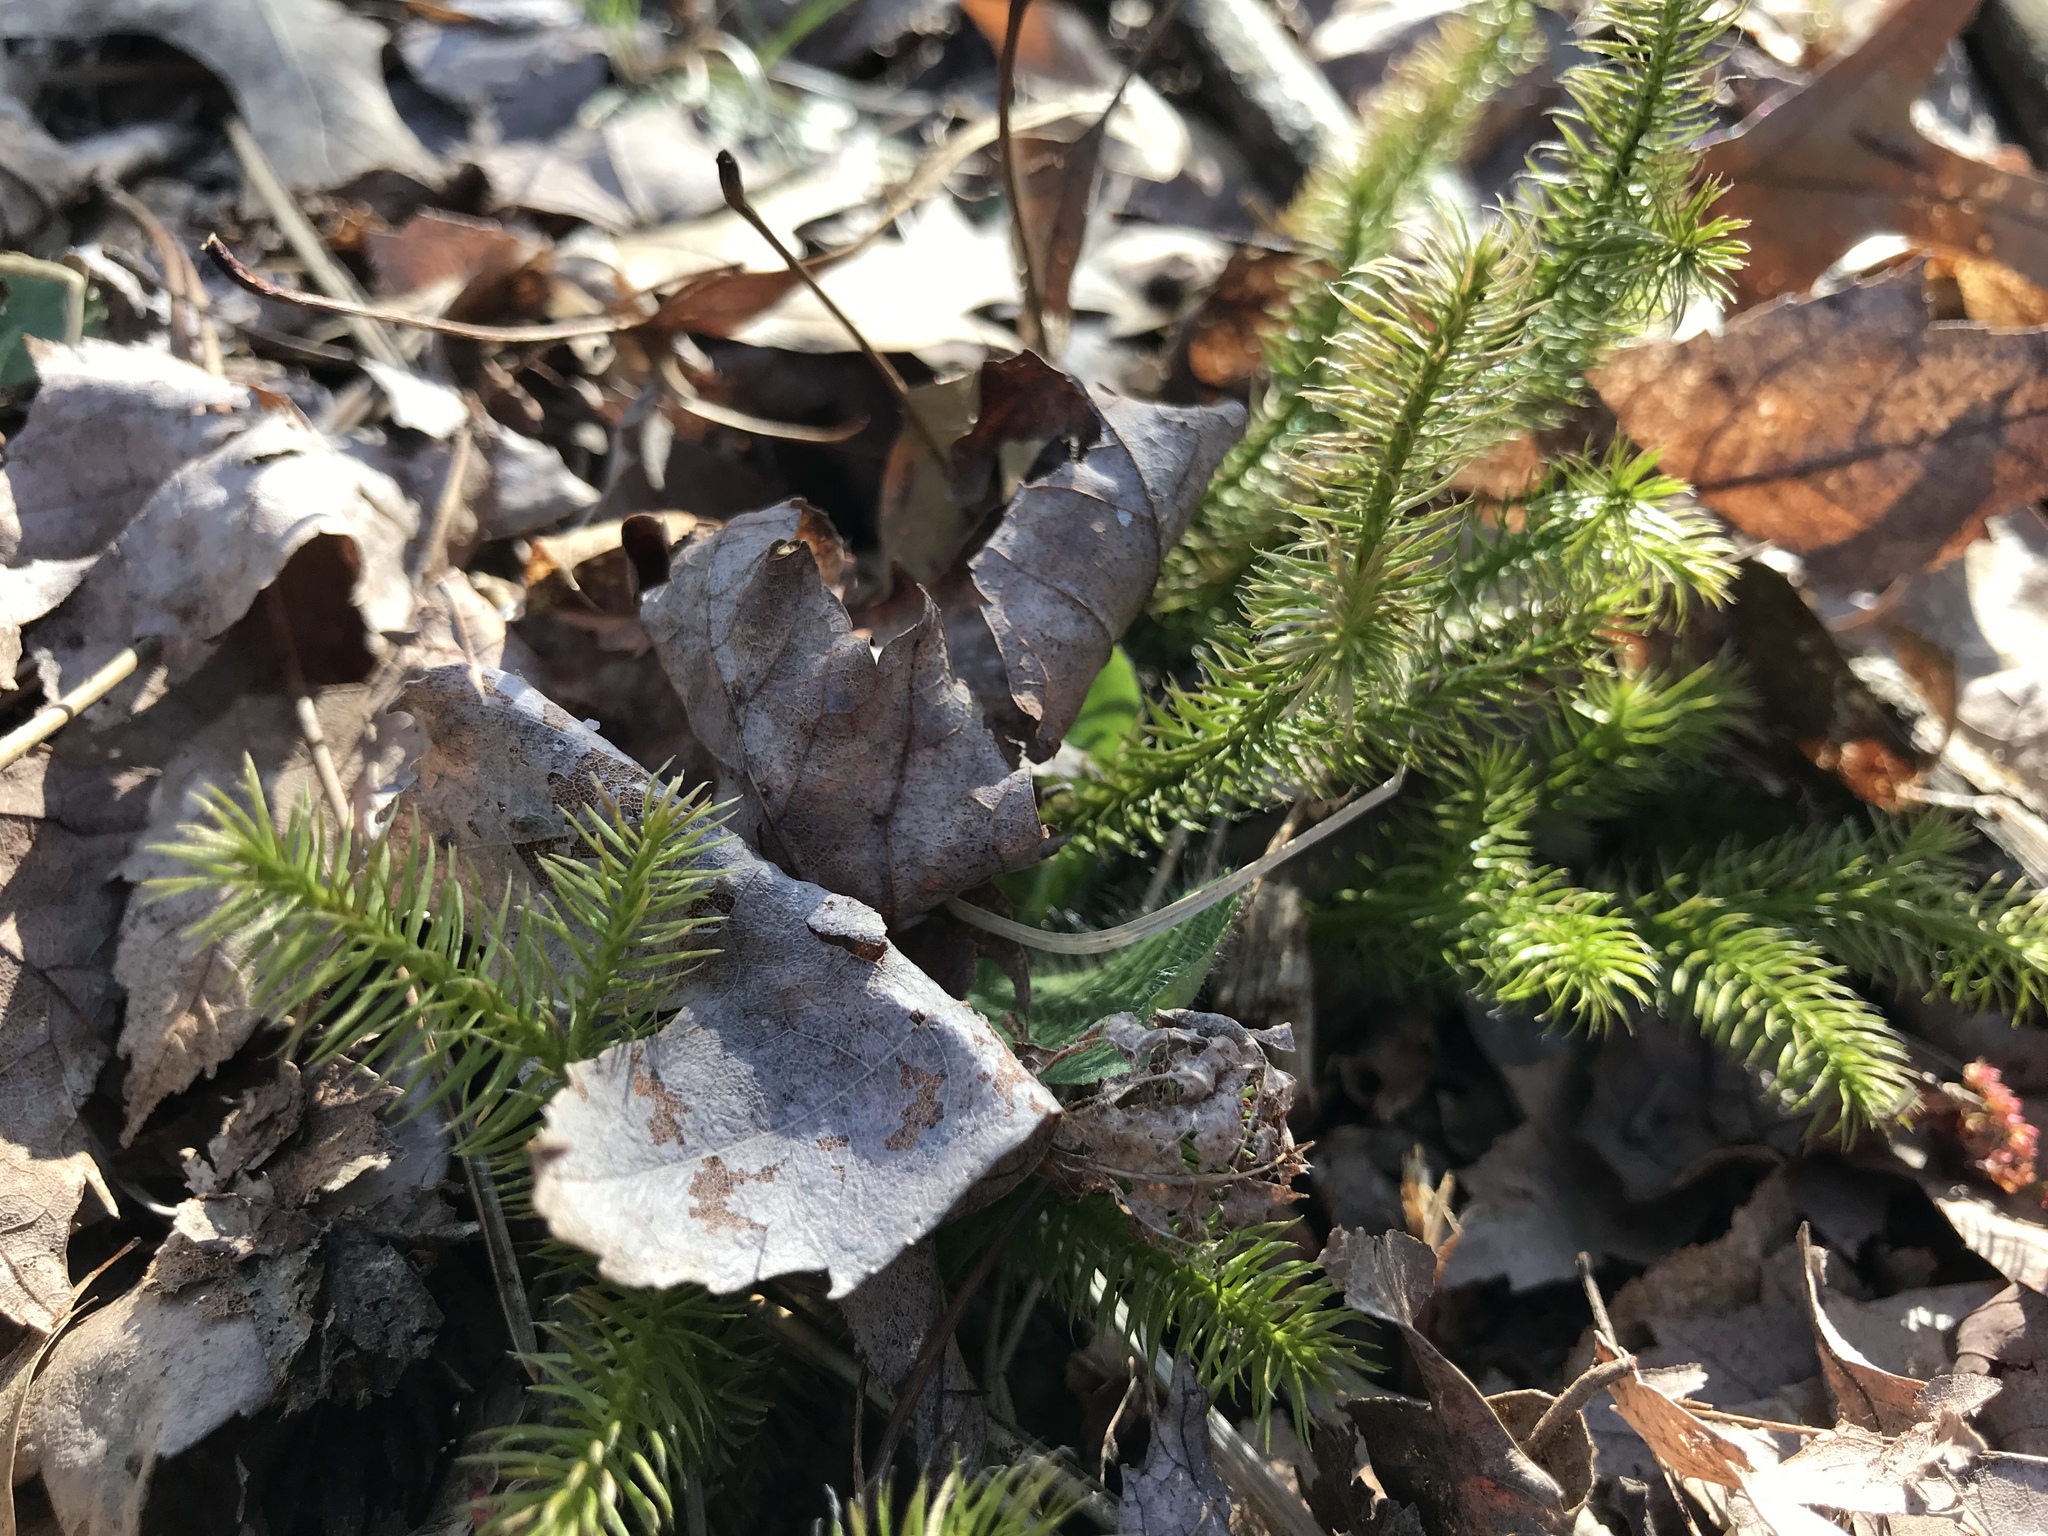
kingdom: Plantae
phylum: Tracheophyta
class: Lycopodiopsida
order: Lycopodiales
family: Lycopodiaceae
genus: Lycopodium
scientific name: Lycopodium clavatum
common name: Stag's-horn clubmoss
